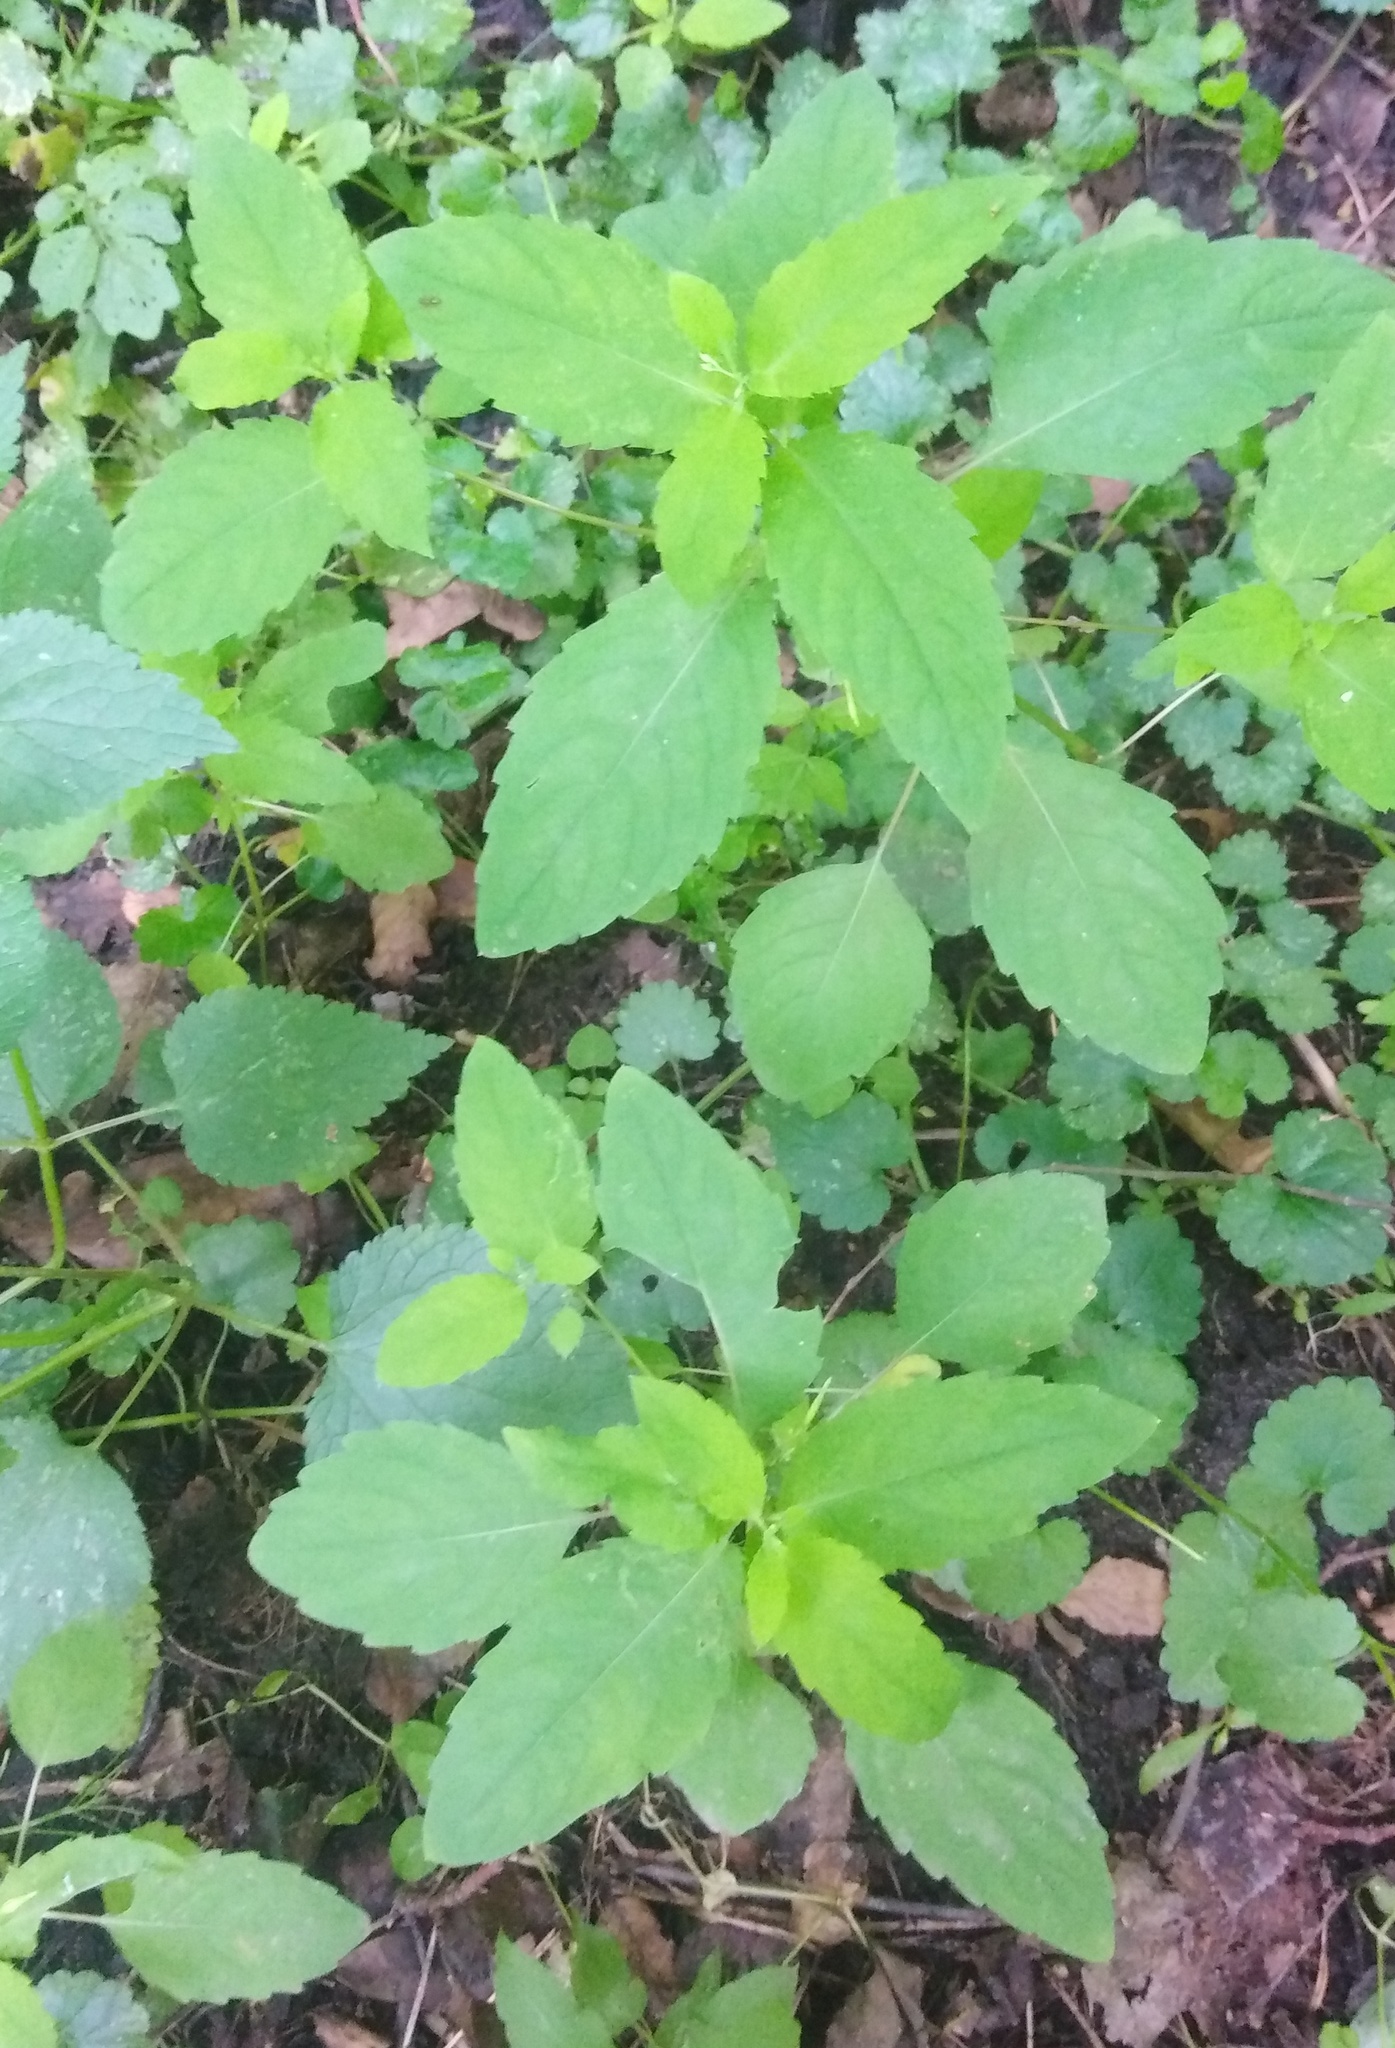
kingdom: Plantae
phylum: Tracheophyta
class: Magnoliopsida
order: Ericales
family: Balsaminaceae
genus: Impatiens
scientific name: Impatiens noli-tangere
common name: Touch-me-not balsam
